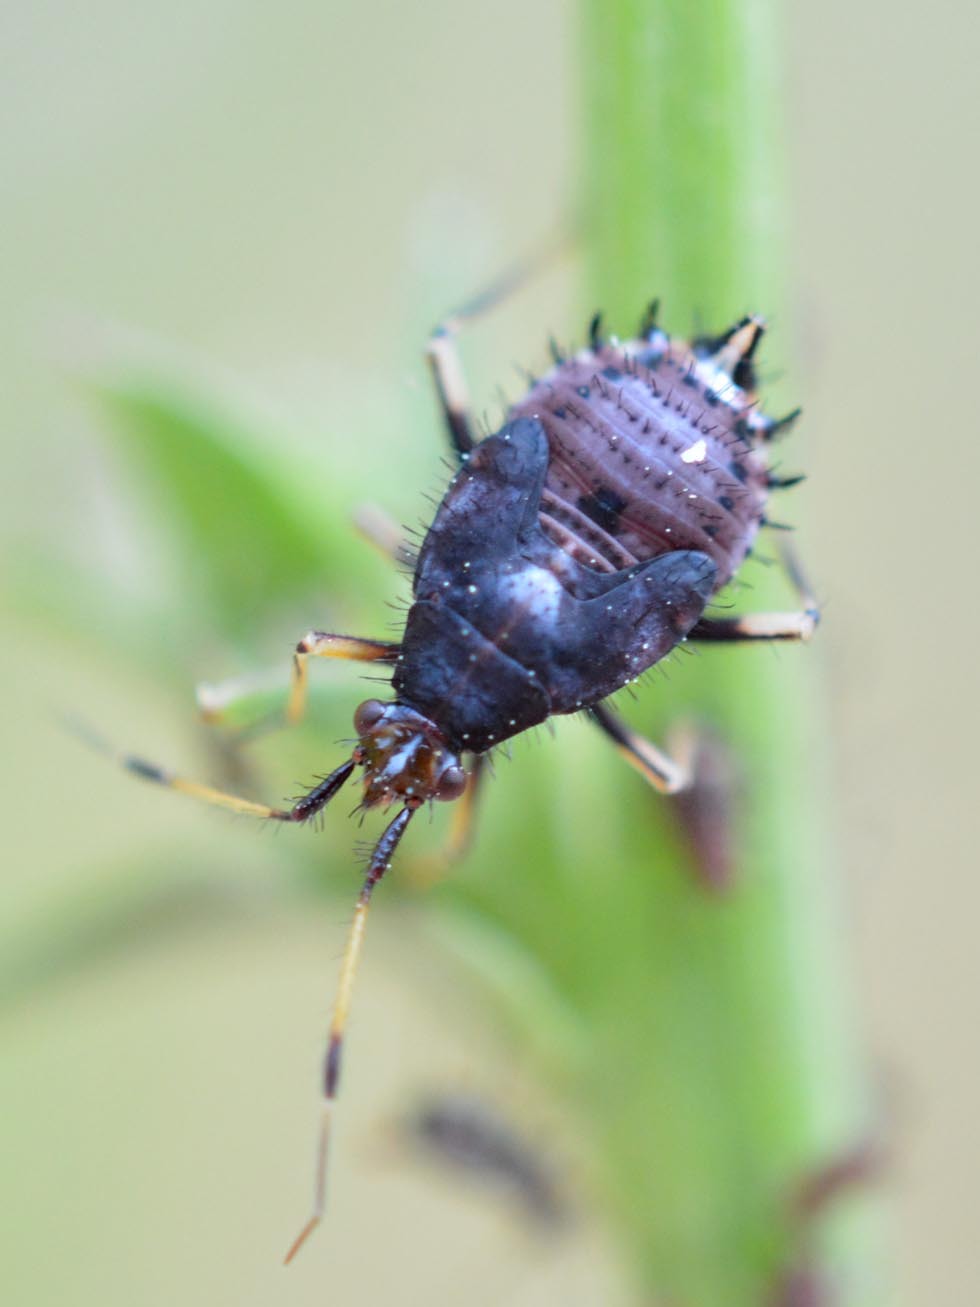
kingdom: Animalia
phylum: Arthropoda
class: Insecta
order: Hemiptera
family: Miridae
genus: Deraeocoris
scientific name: Deraeocoris ruber
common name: Plant bug
